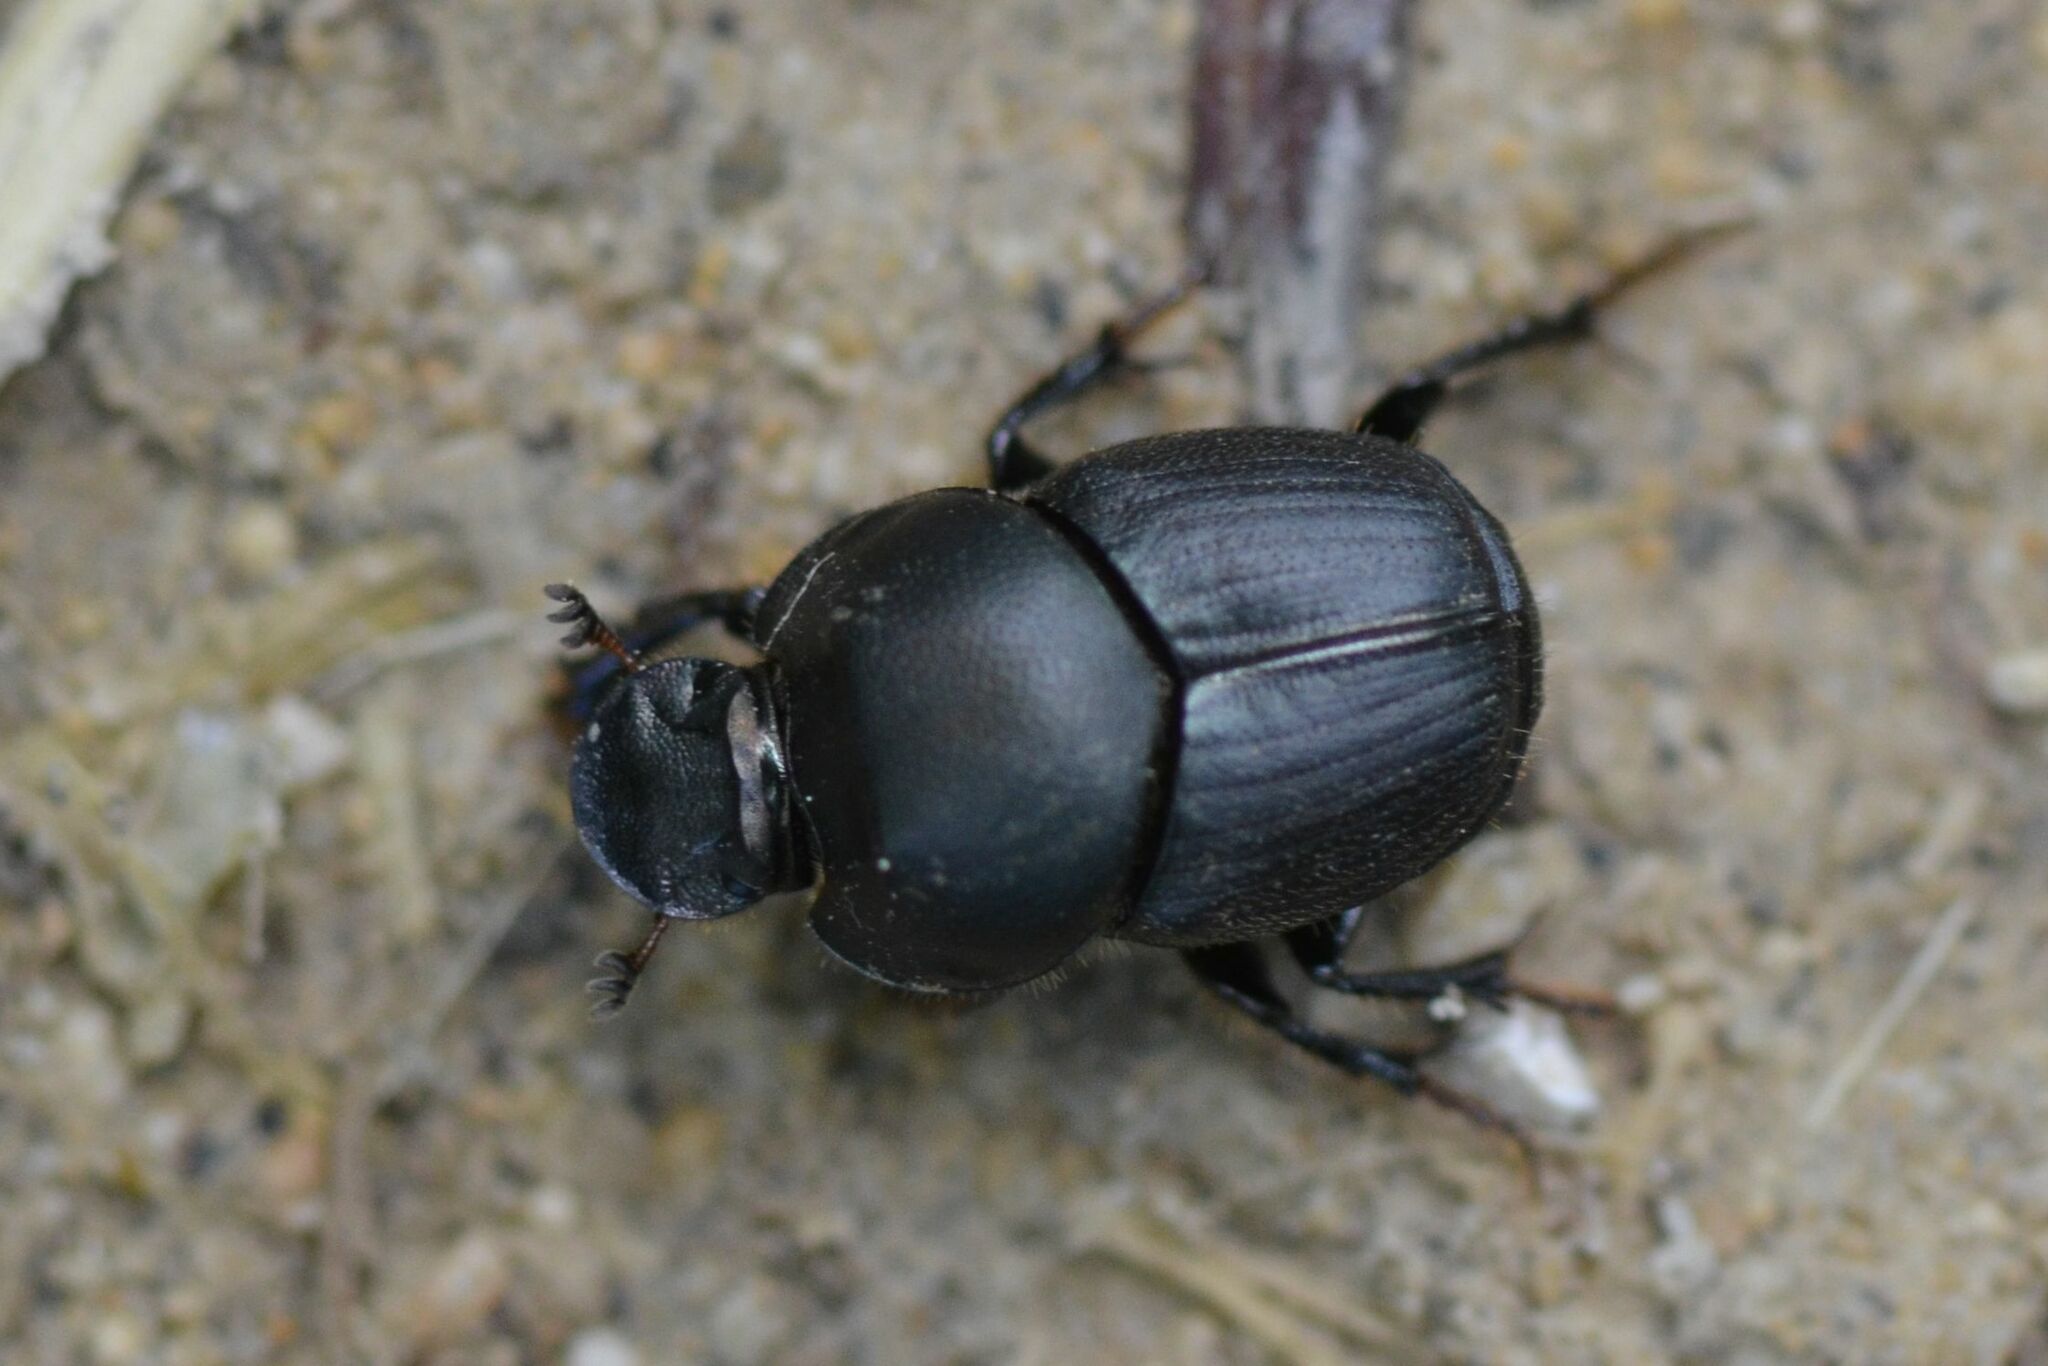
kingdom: Animalia
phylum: Arthropoda
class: Insecta
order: Coleoptera
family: Scarabaeidae
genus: Onthophagus
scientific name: Onthophagus taurus
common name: Bullhorned dung beetle
